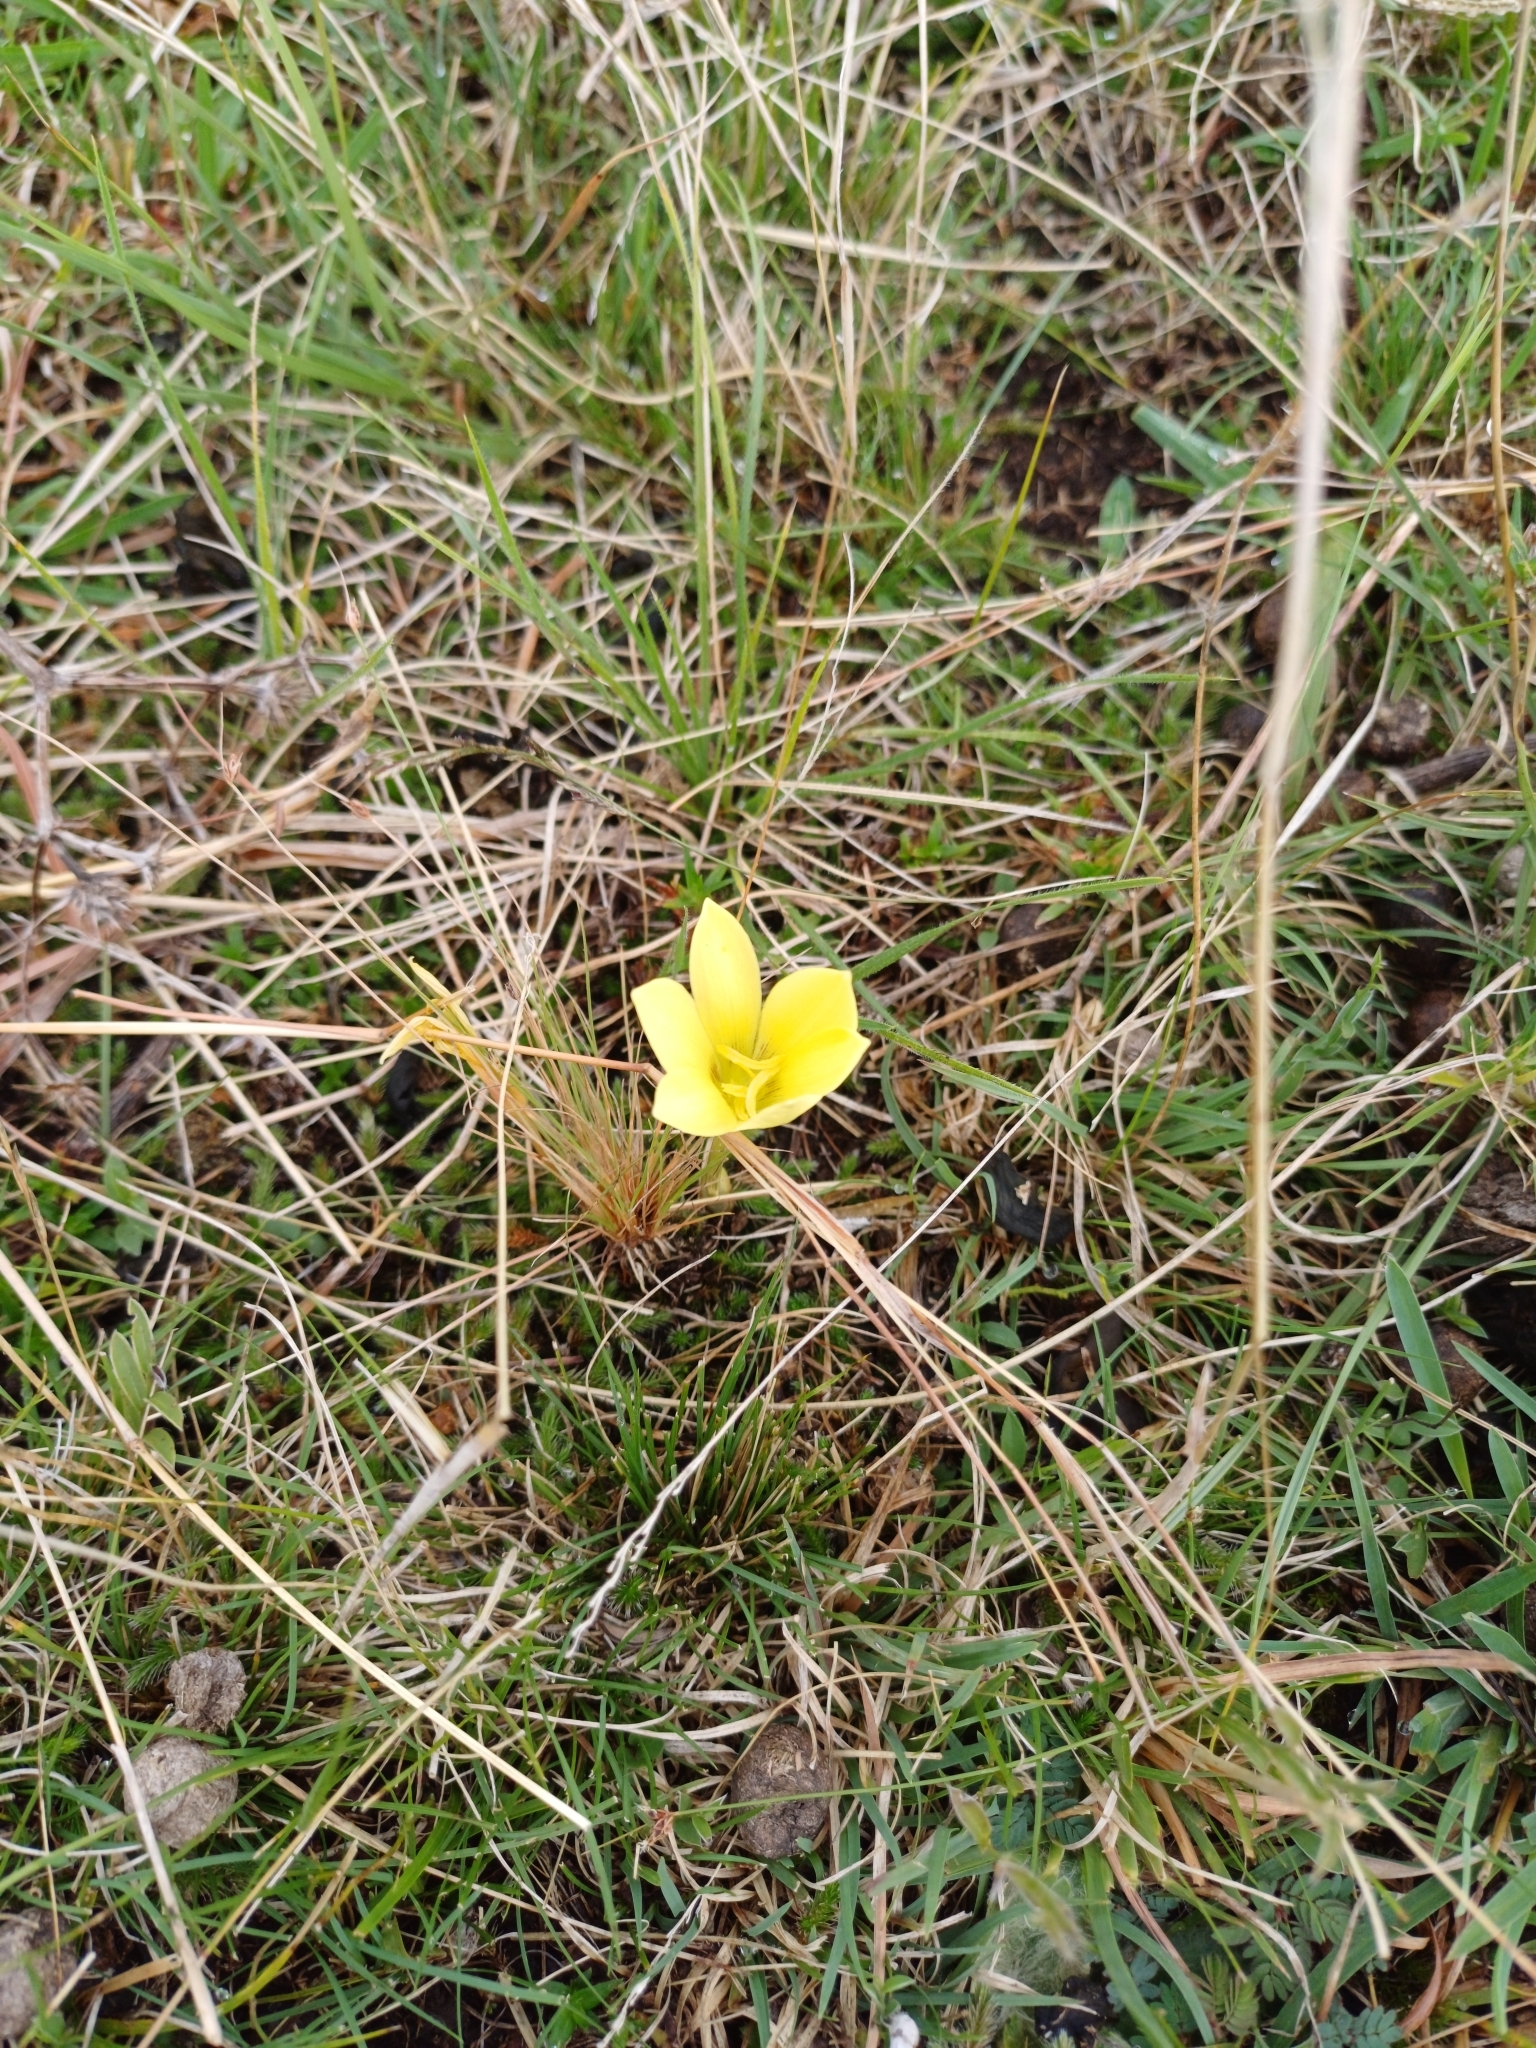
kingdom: Plantae
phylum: Tracheophyta
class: Liliopsida
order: Asparagales
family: Amaryllidaceae
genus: Zephyranthes
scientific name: Zephyranthes americana
